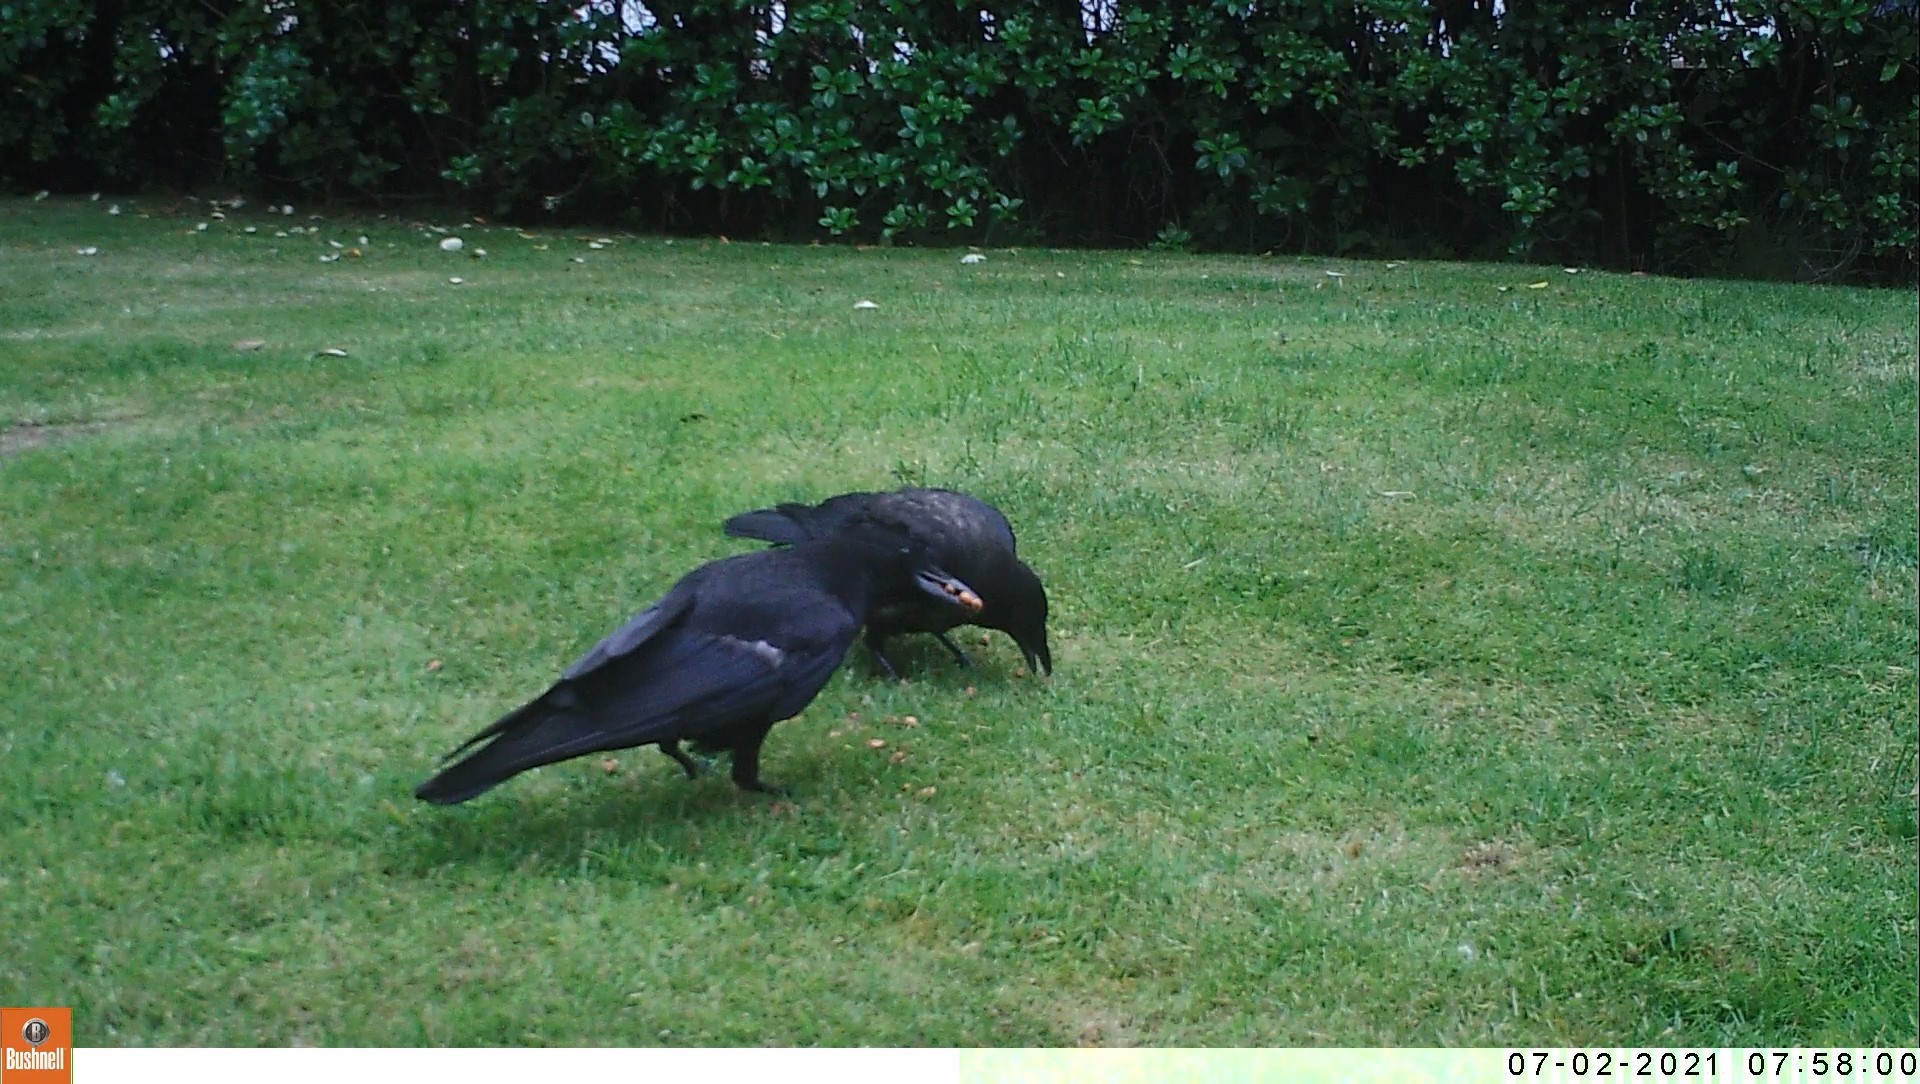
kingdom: Animalia
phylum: Chordata
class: Aves
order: Passeriformes
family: Corvidae
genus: Corvus
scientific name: Corvus corone
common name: Carrion crow
